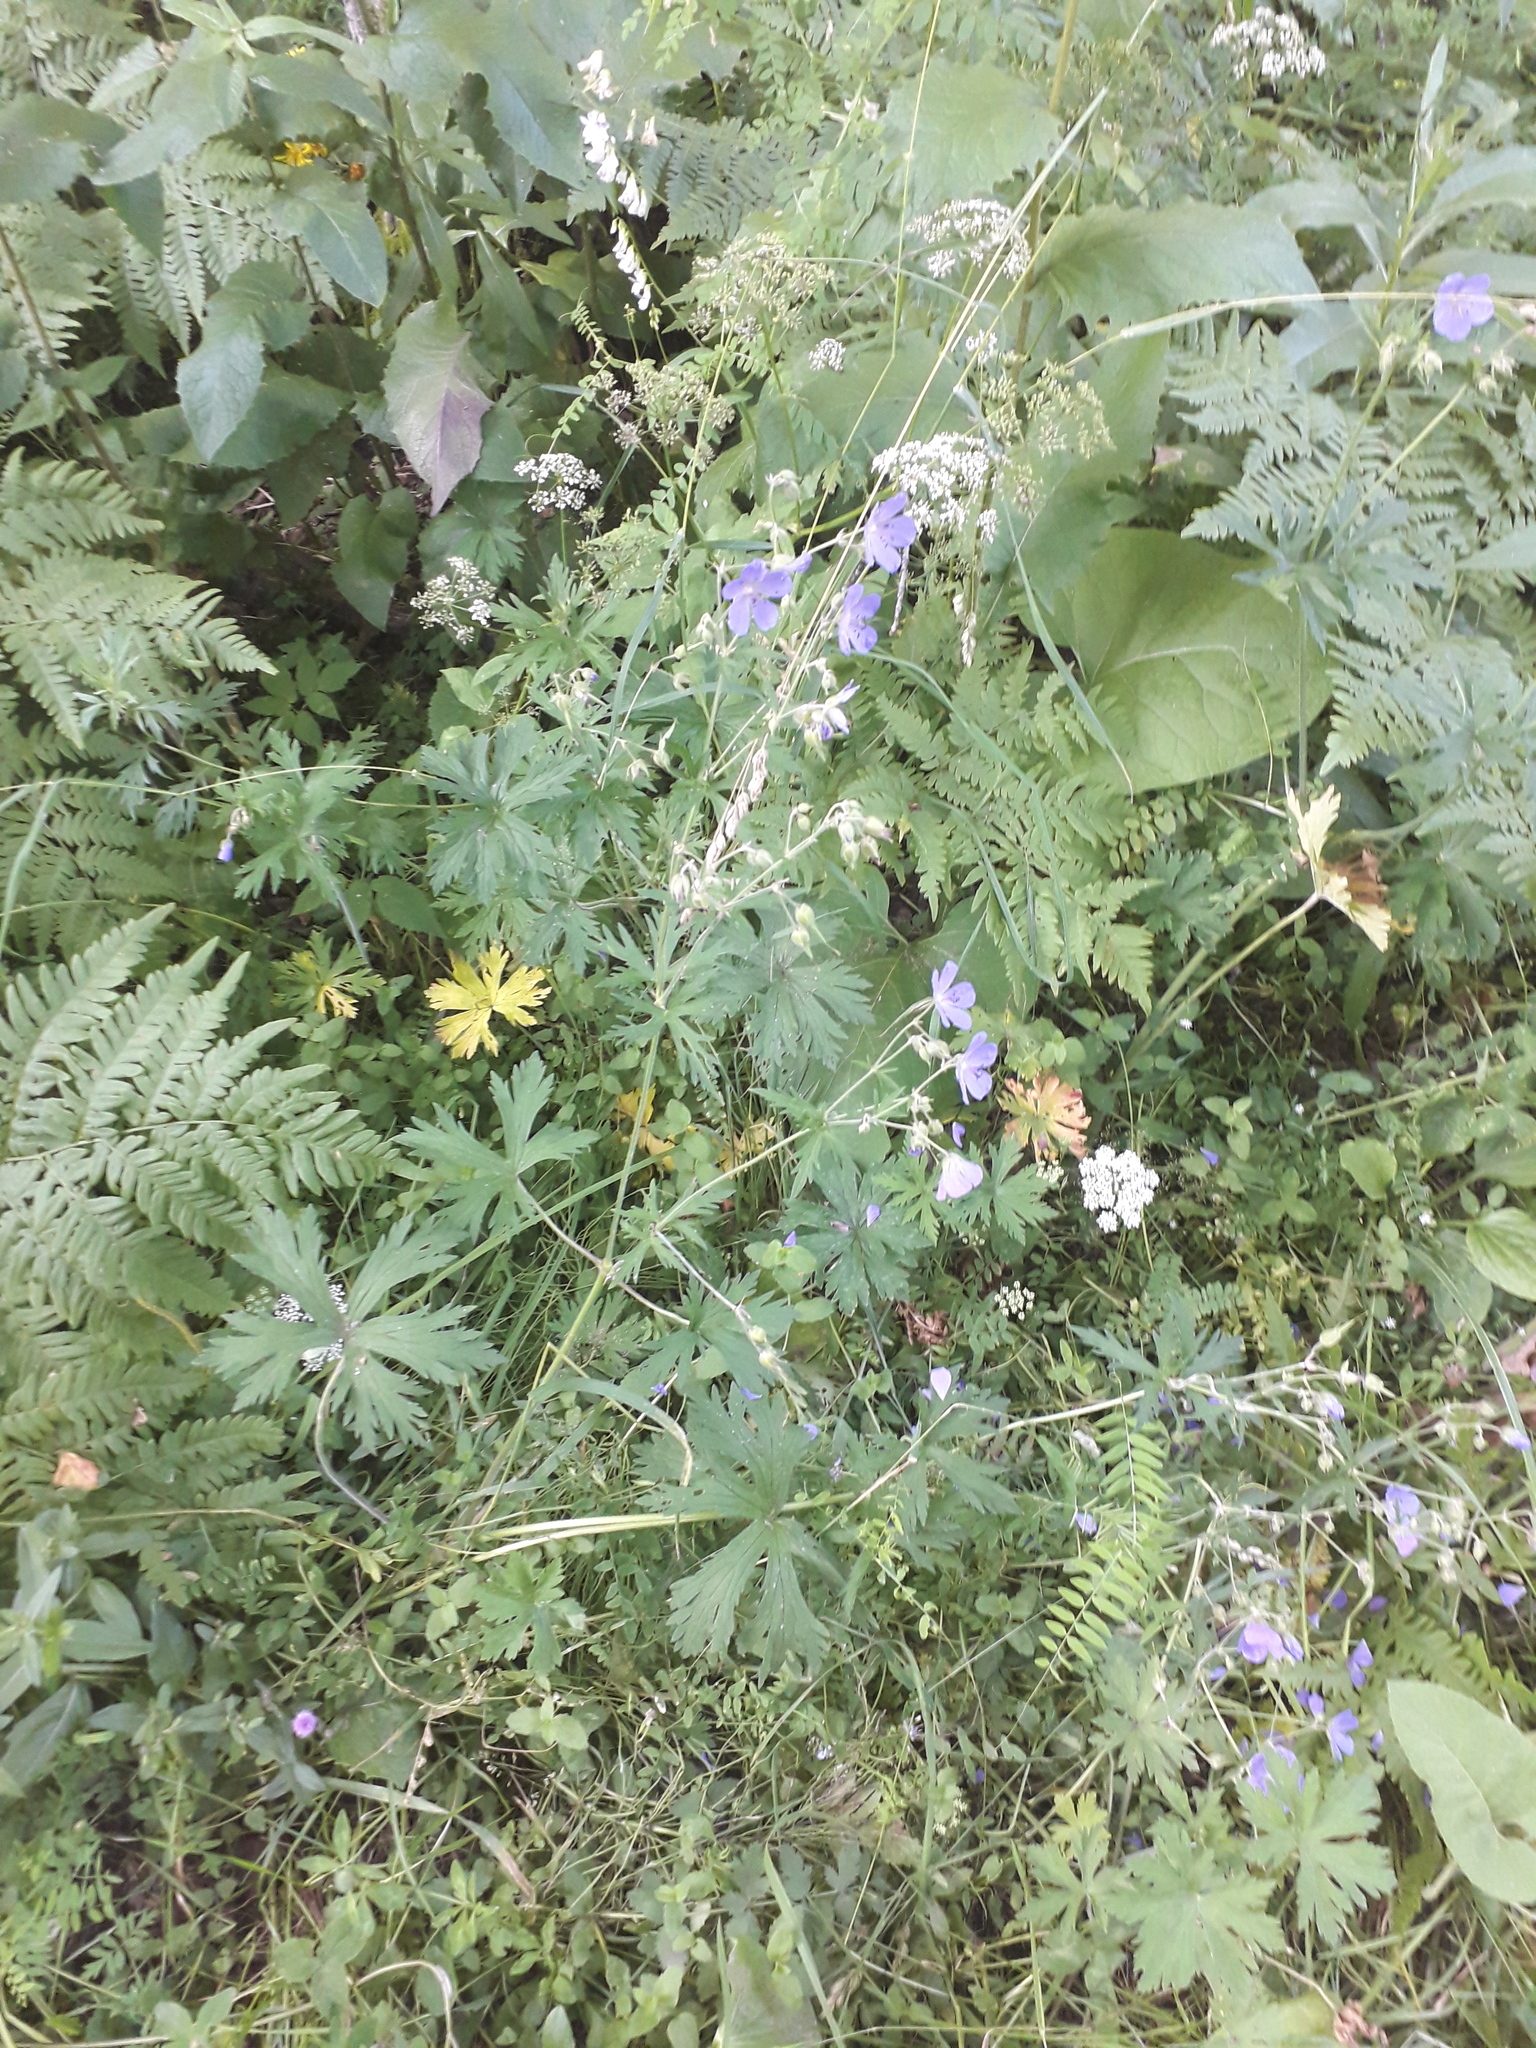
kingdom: Plantae
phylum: Tracheophyta
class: Magnoliopsida
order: Geraniales
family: Geraniaceae
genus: Geranium
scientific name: Geranium pratense
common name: Meadow crane's-bill
